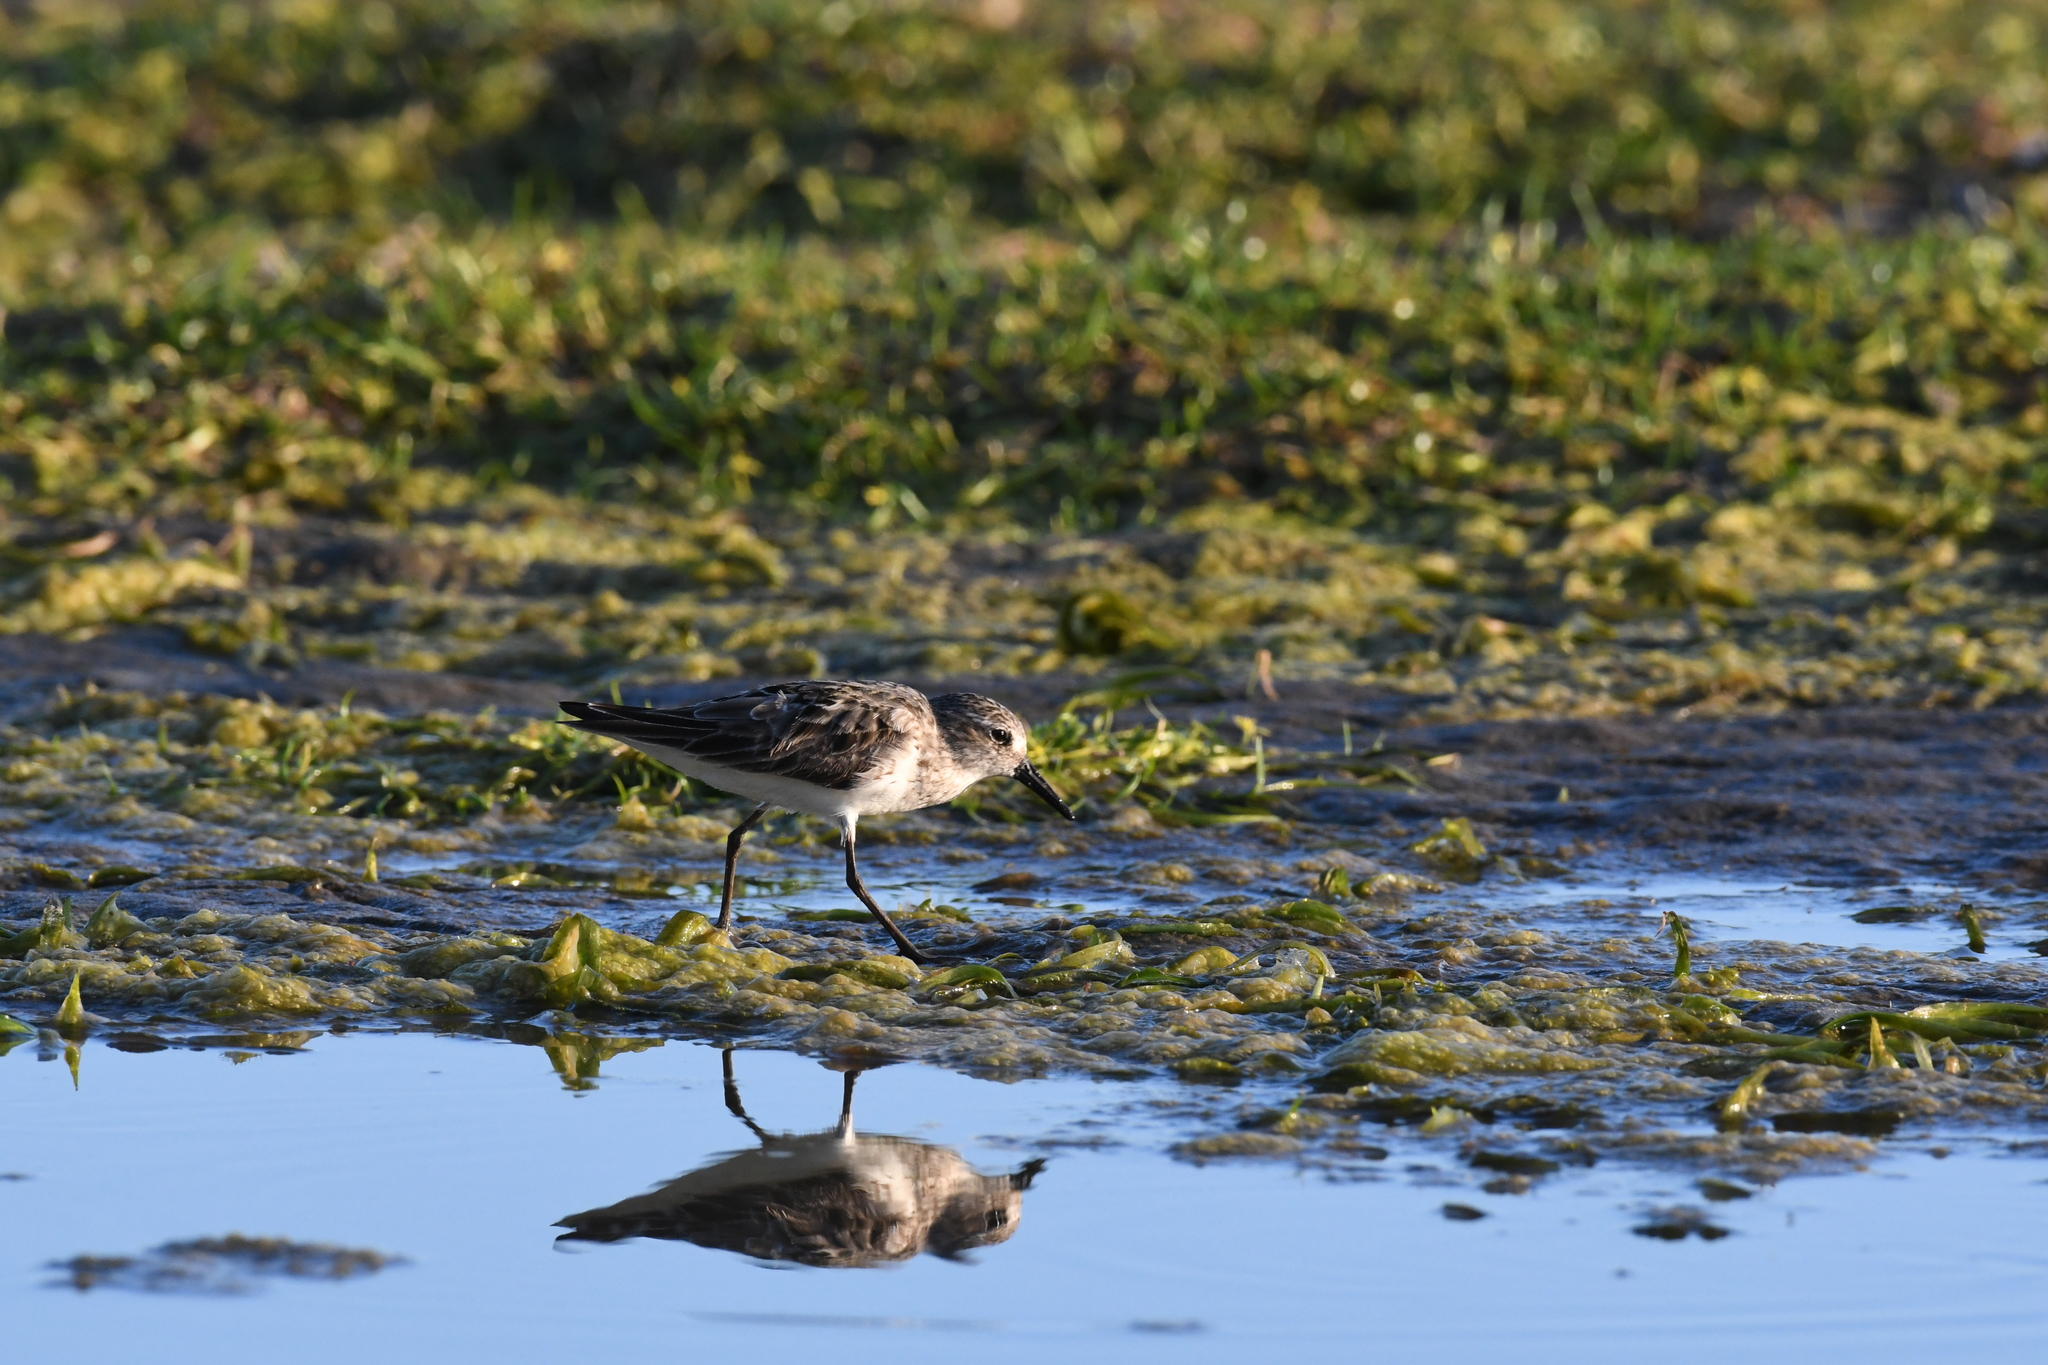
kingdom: Animalia
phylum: Chordata
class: Aves
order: Charadriiformes
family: Scolopacidae
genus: Calidris
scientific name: Calidris pusilla
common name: Semipalmated sandpiper
